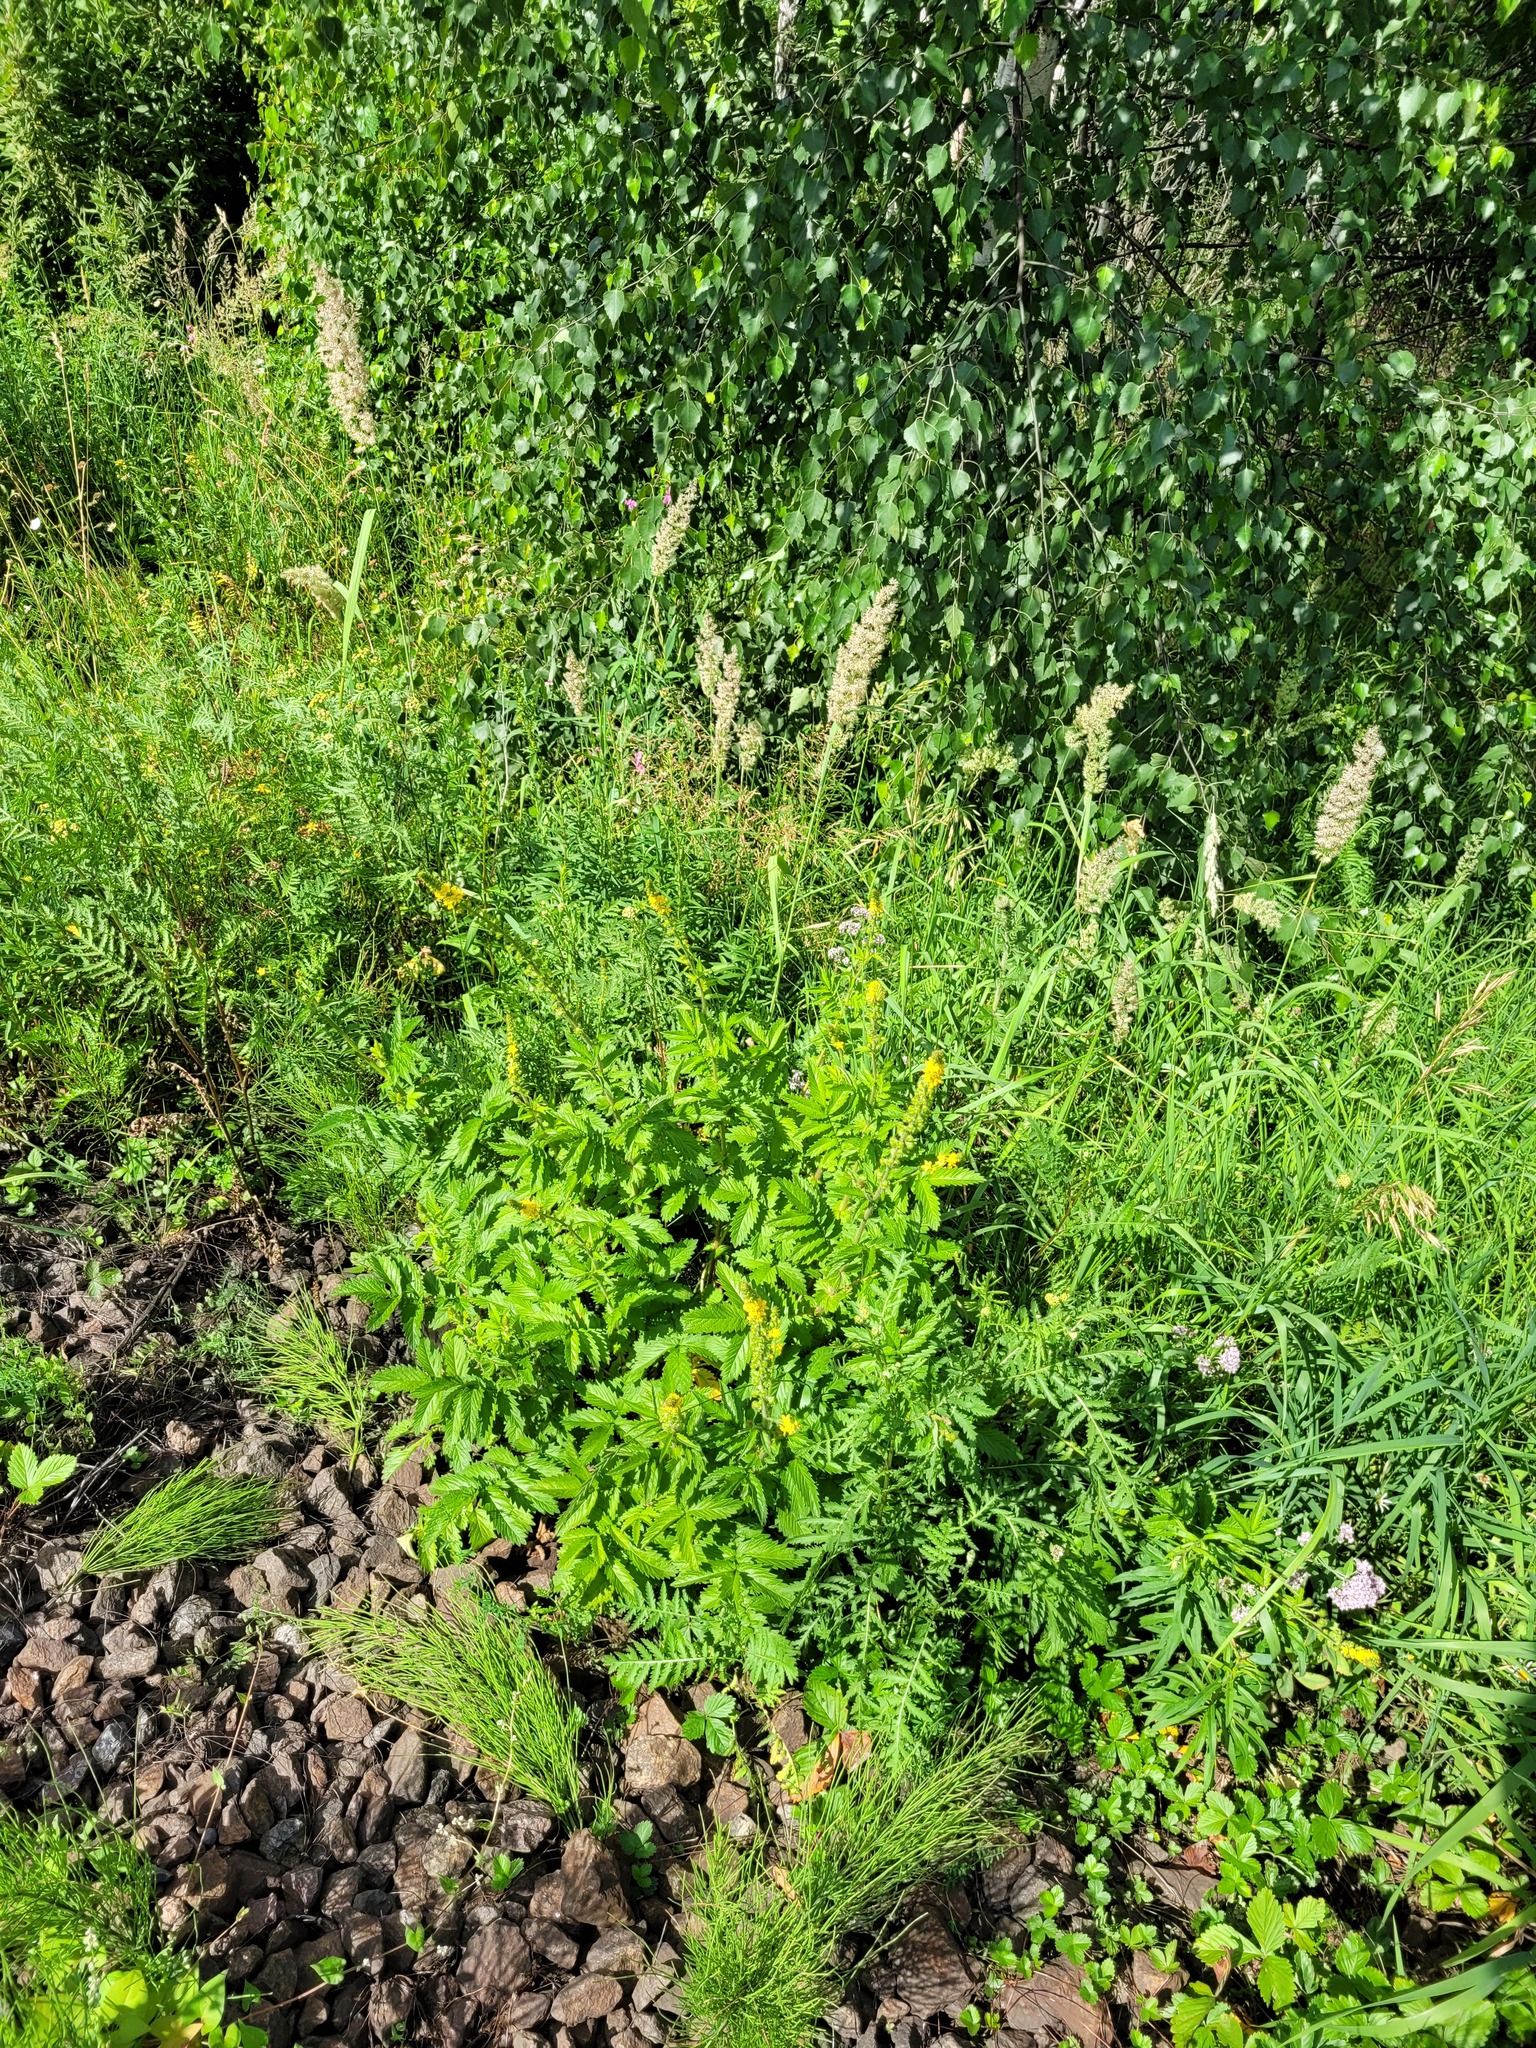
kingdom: Plantae
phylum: Tracheophyta
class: Magnoliopsida
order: Rosales
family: Rosaceae
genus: Agrimonia
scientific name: Agrimonia eupatoria
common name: Agrimony
